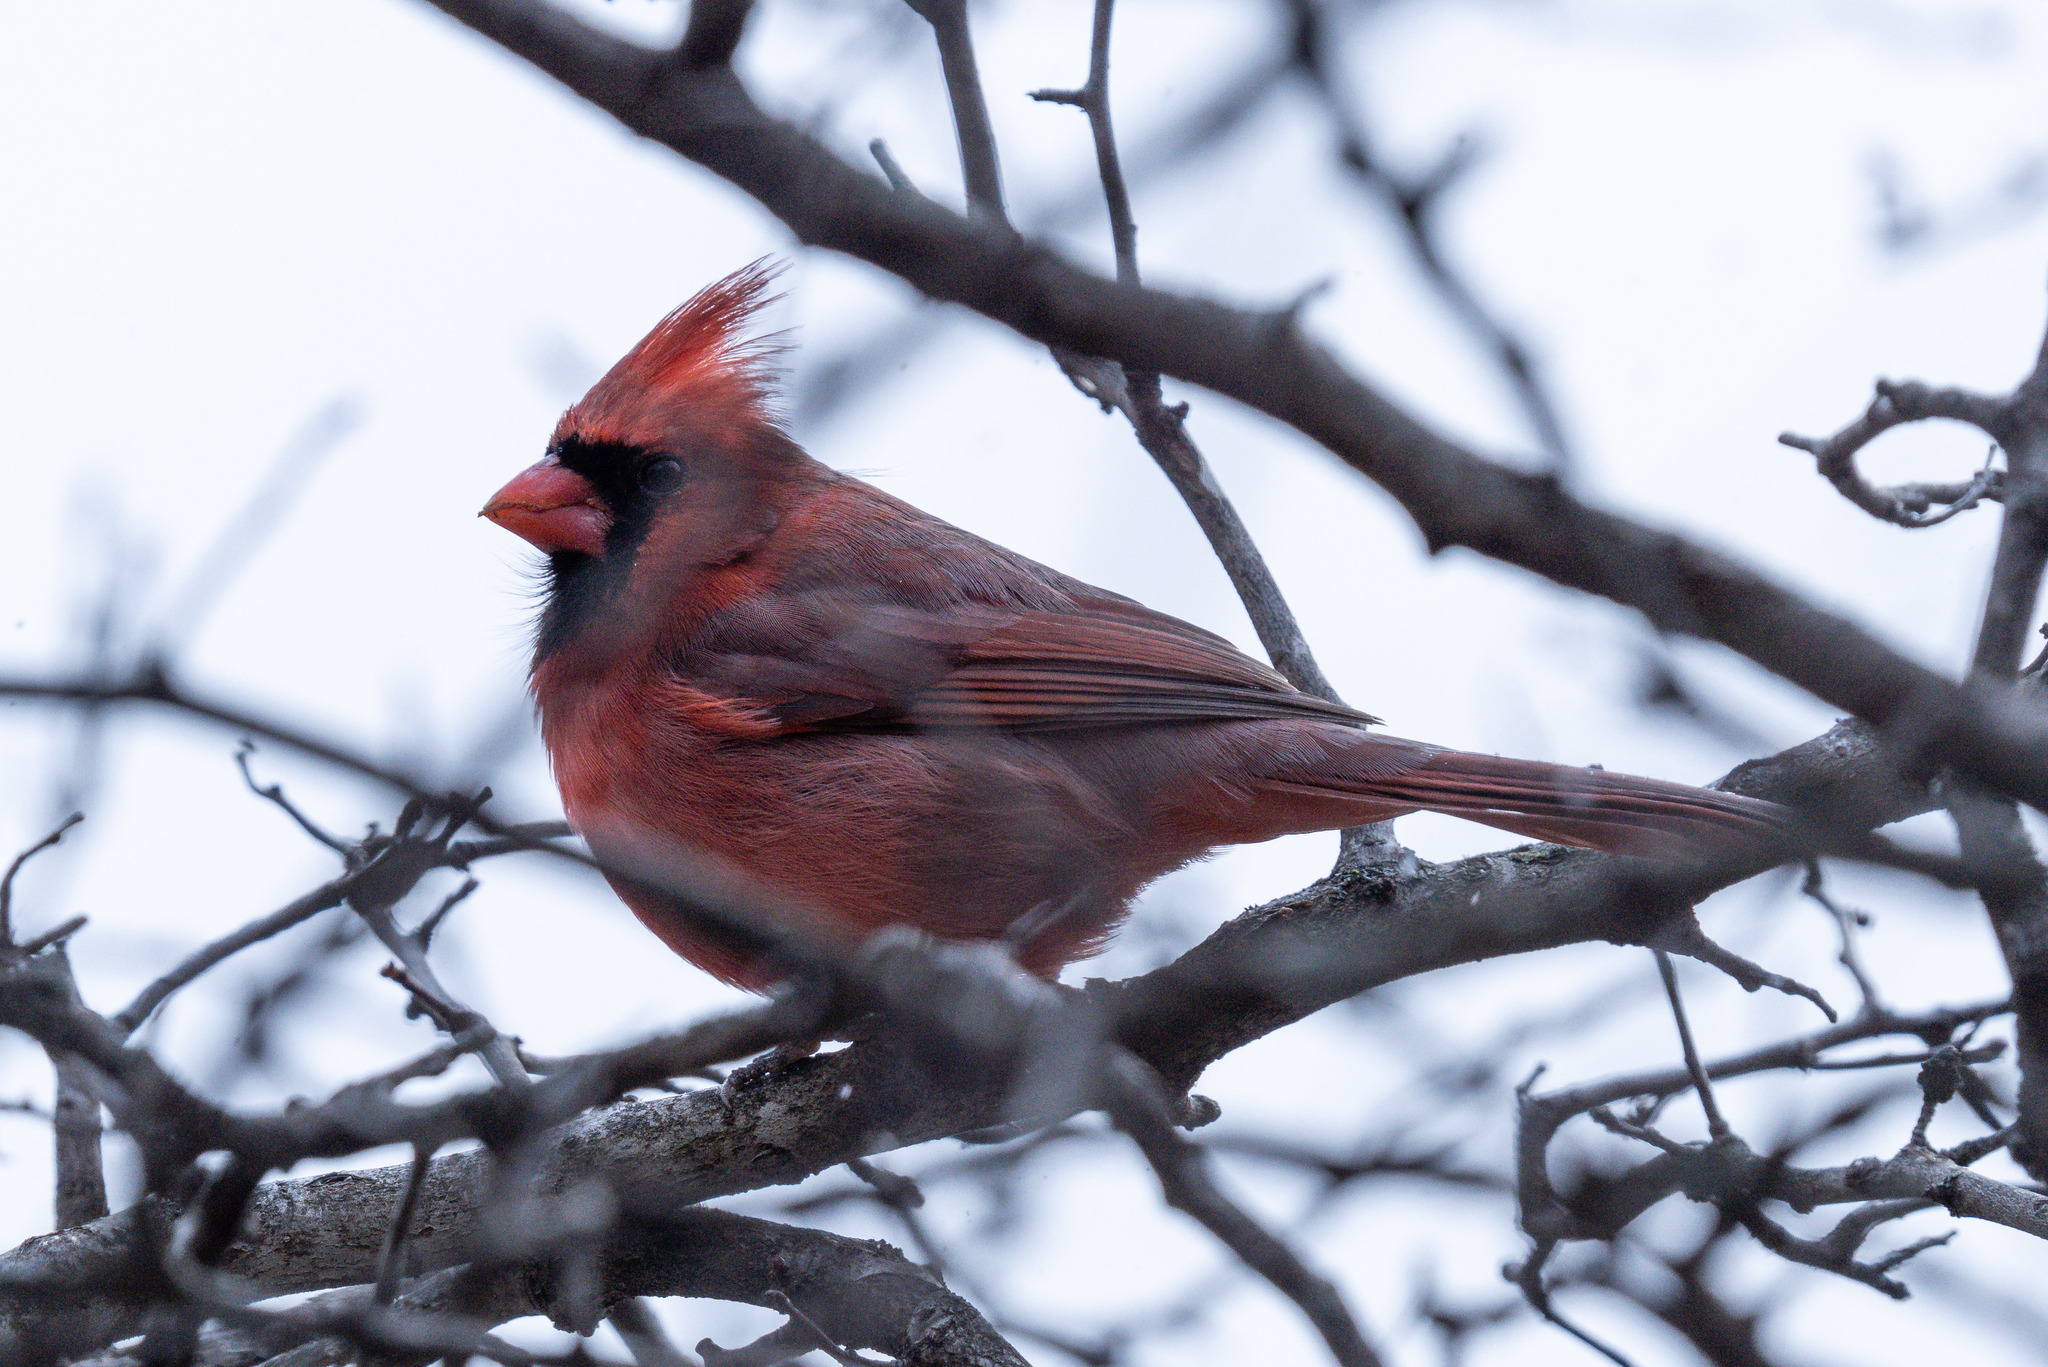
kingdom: Animalia
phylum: Chordata
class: Aves
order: Passeriformes
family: Cardinalidae
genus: Cardinalis
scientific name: Cardinalis cardinalis
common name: Northern cardinal
